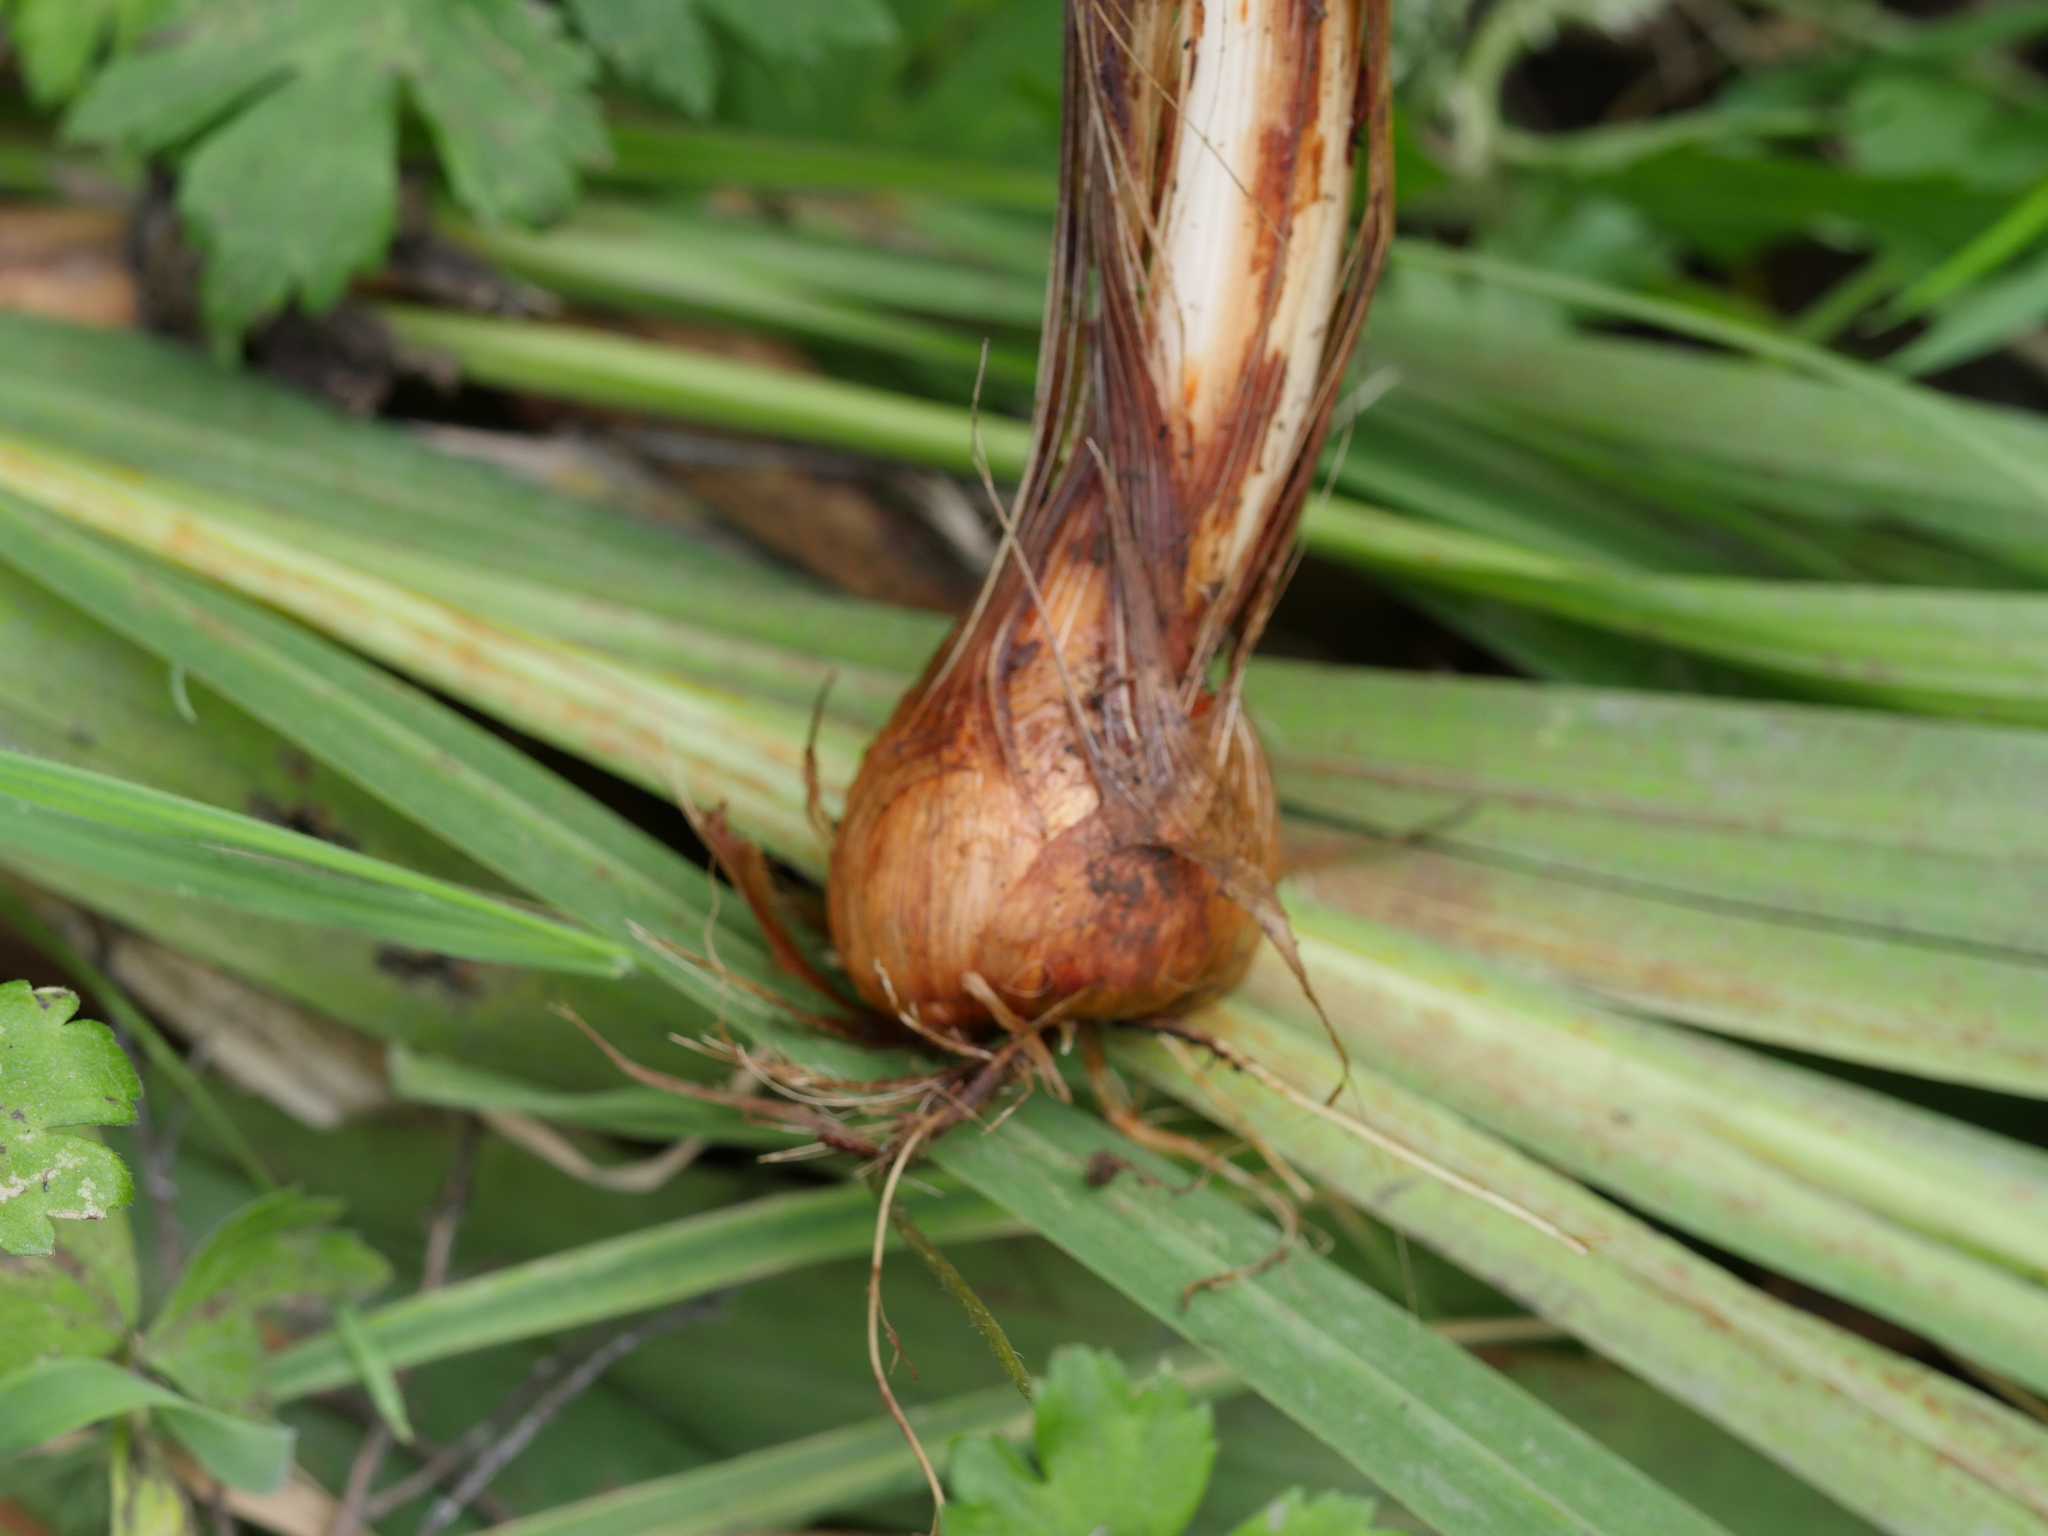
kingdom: Plantae
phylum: Tracheophyta
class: Liliopsida
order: Asparagales
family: Iridaceae
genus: Crocosmia
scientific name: Crocosmia crocosmiiflora
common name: Montbretia
